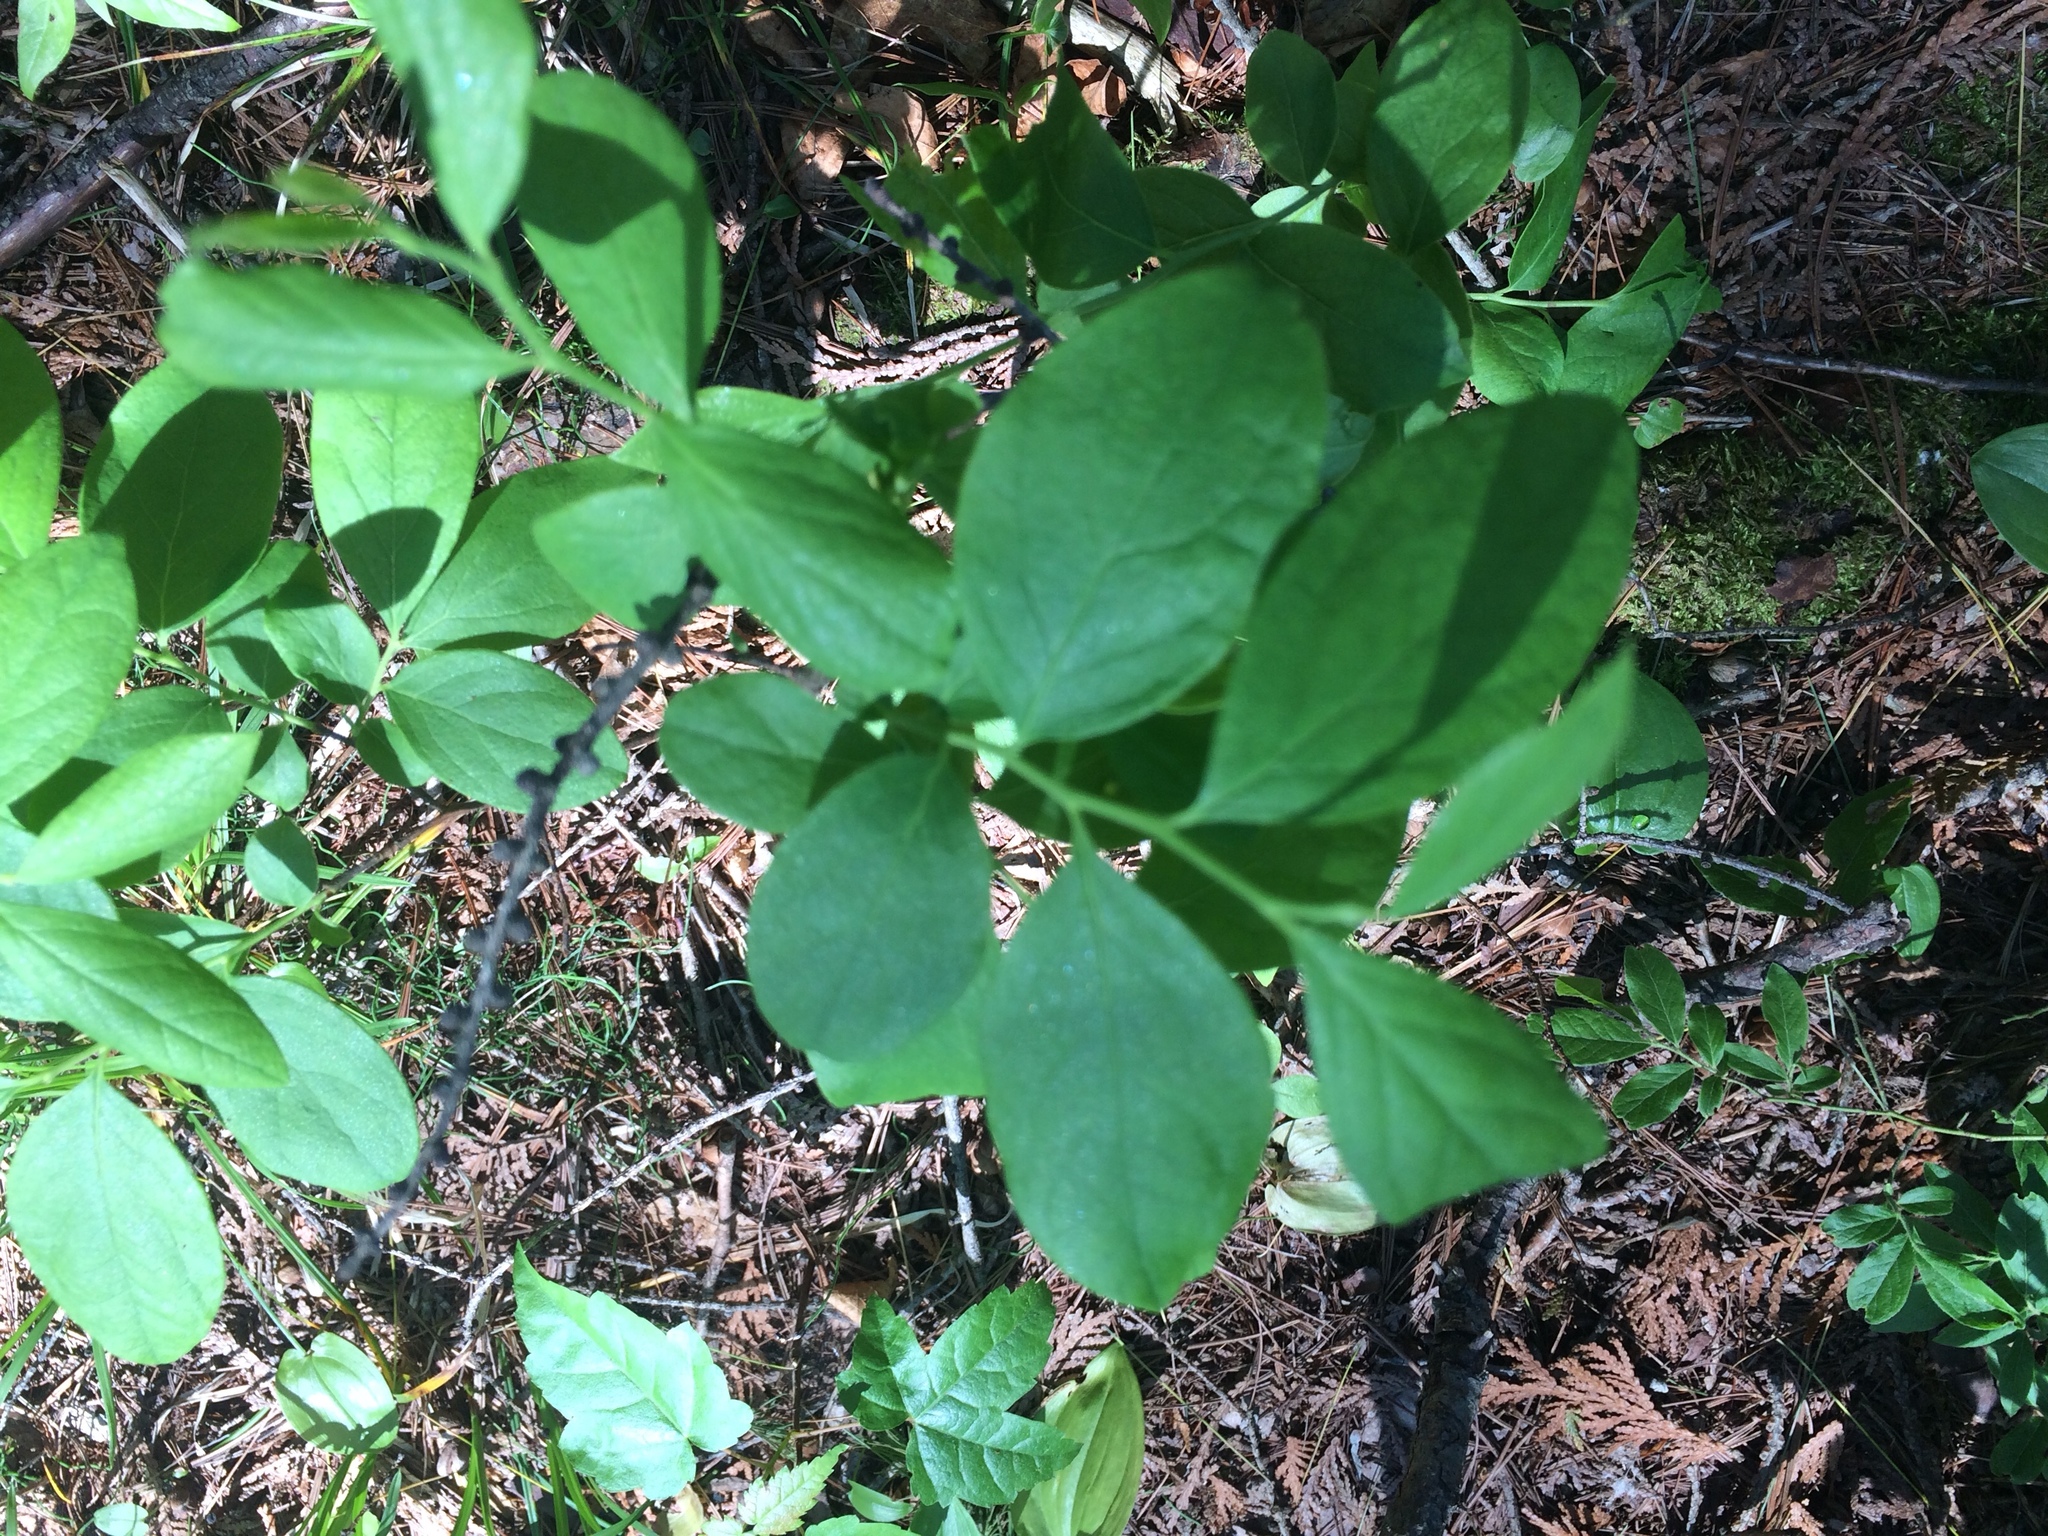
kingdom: Plantae
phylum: Tracheophyta
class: Magnoliopsida
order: Ericales
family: Ericaceae
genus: Gaylussacia
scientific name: Gaylussacia baccata
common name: Black huckleberry
